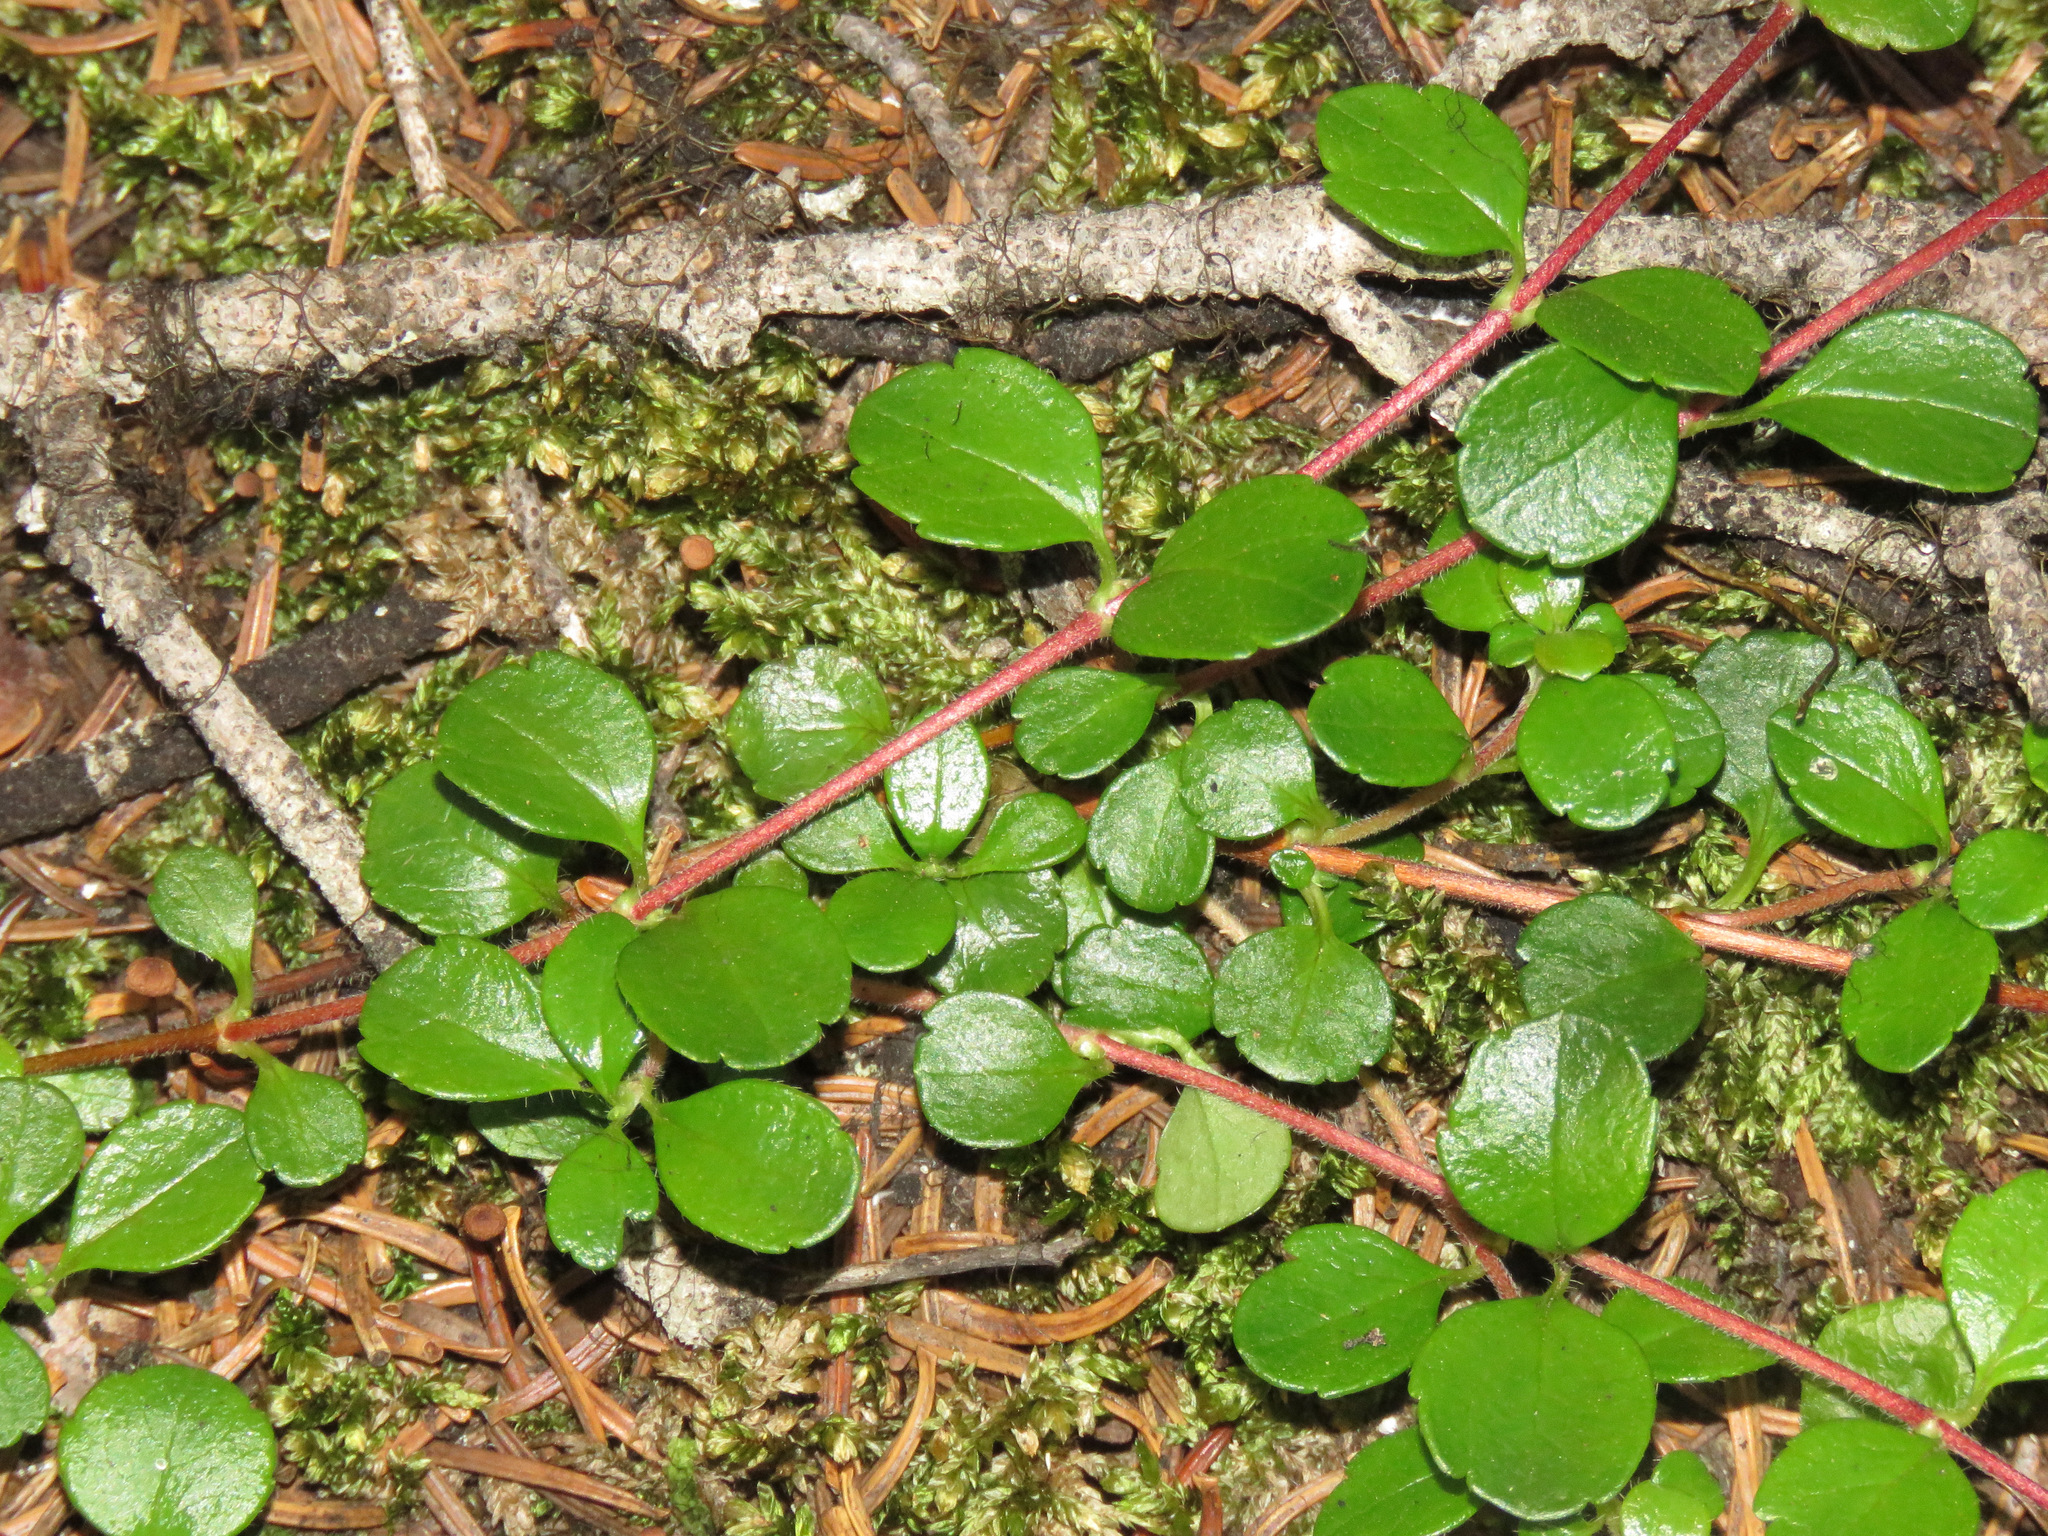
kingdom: Plantae
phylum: Tracheophyta
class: Magnoliopsida
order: Dipsacales
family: Caprifoliaceae
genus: Linnaea
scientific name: Linnaea borealis
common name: Twinflower
